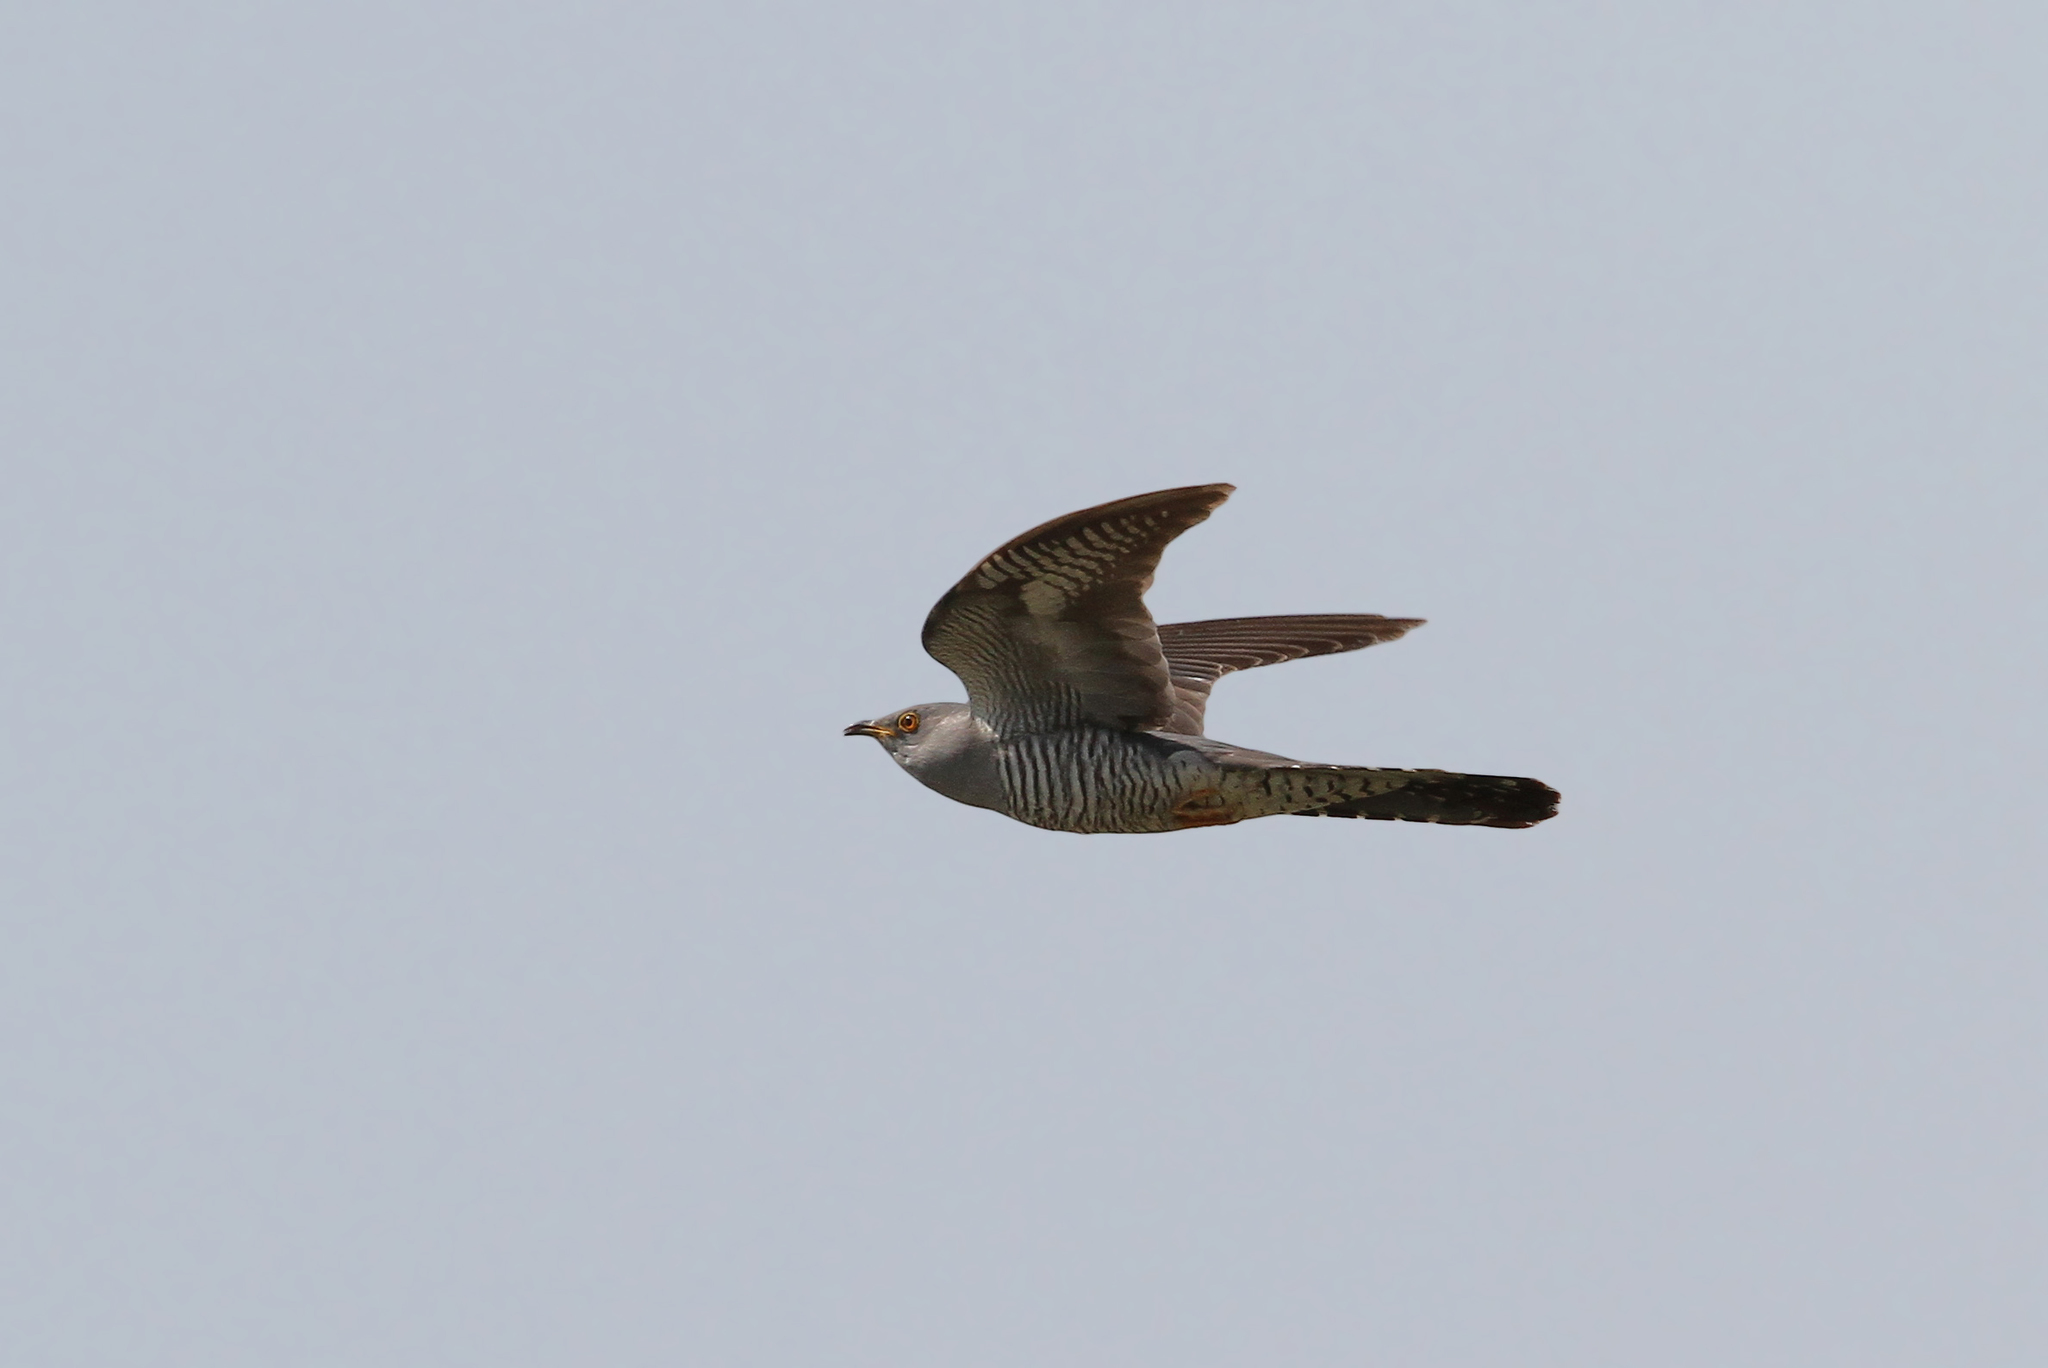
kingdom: Animalia
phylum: Chordata
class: Aves
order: Cuculiformes
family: Cuculidae
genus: Cuculus
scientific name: Cuculus canorus
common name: Common cuckoo
